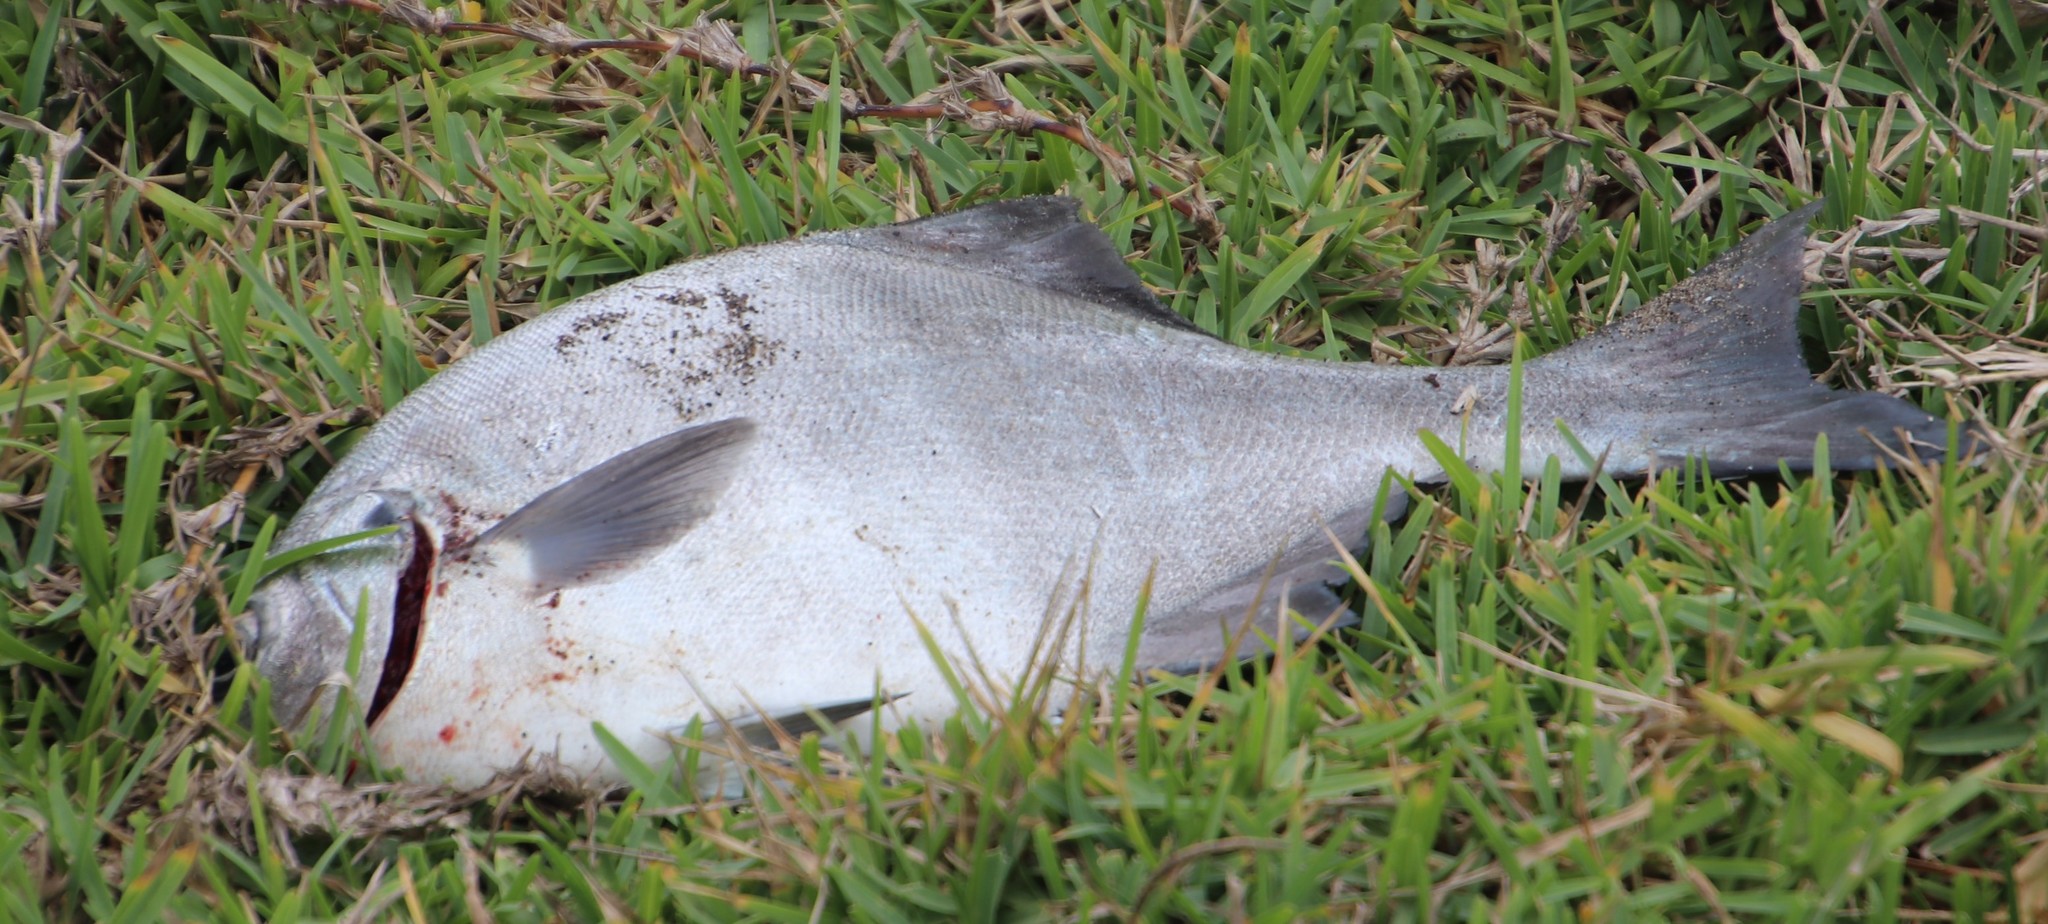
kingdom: Animalia
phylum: Chordata
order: Perciformes
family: Kyphosidae
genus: Neoscorpis
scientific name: Neoscorpis lithophilus
